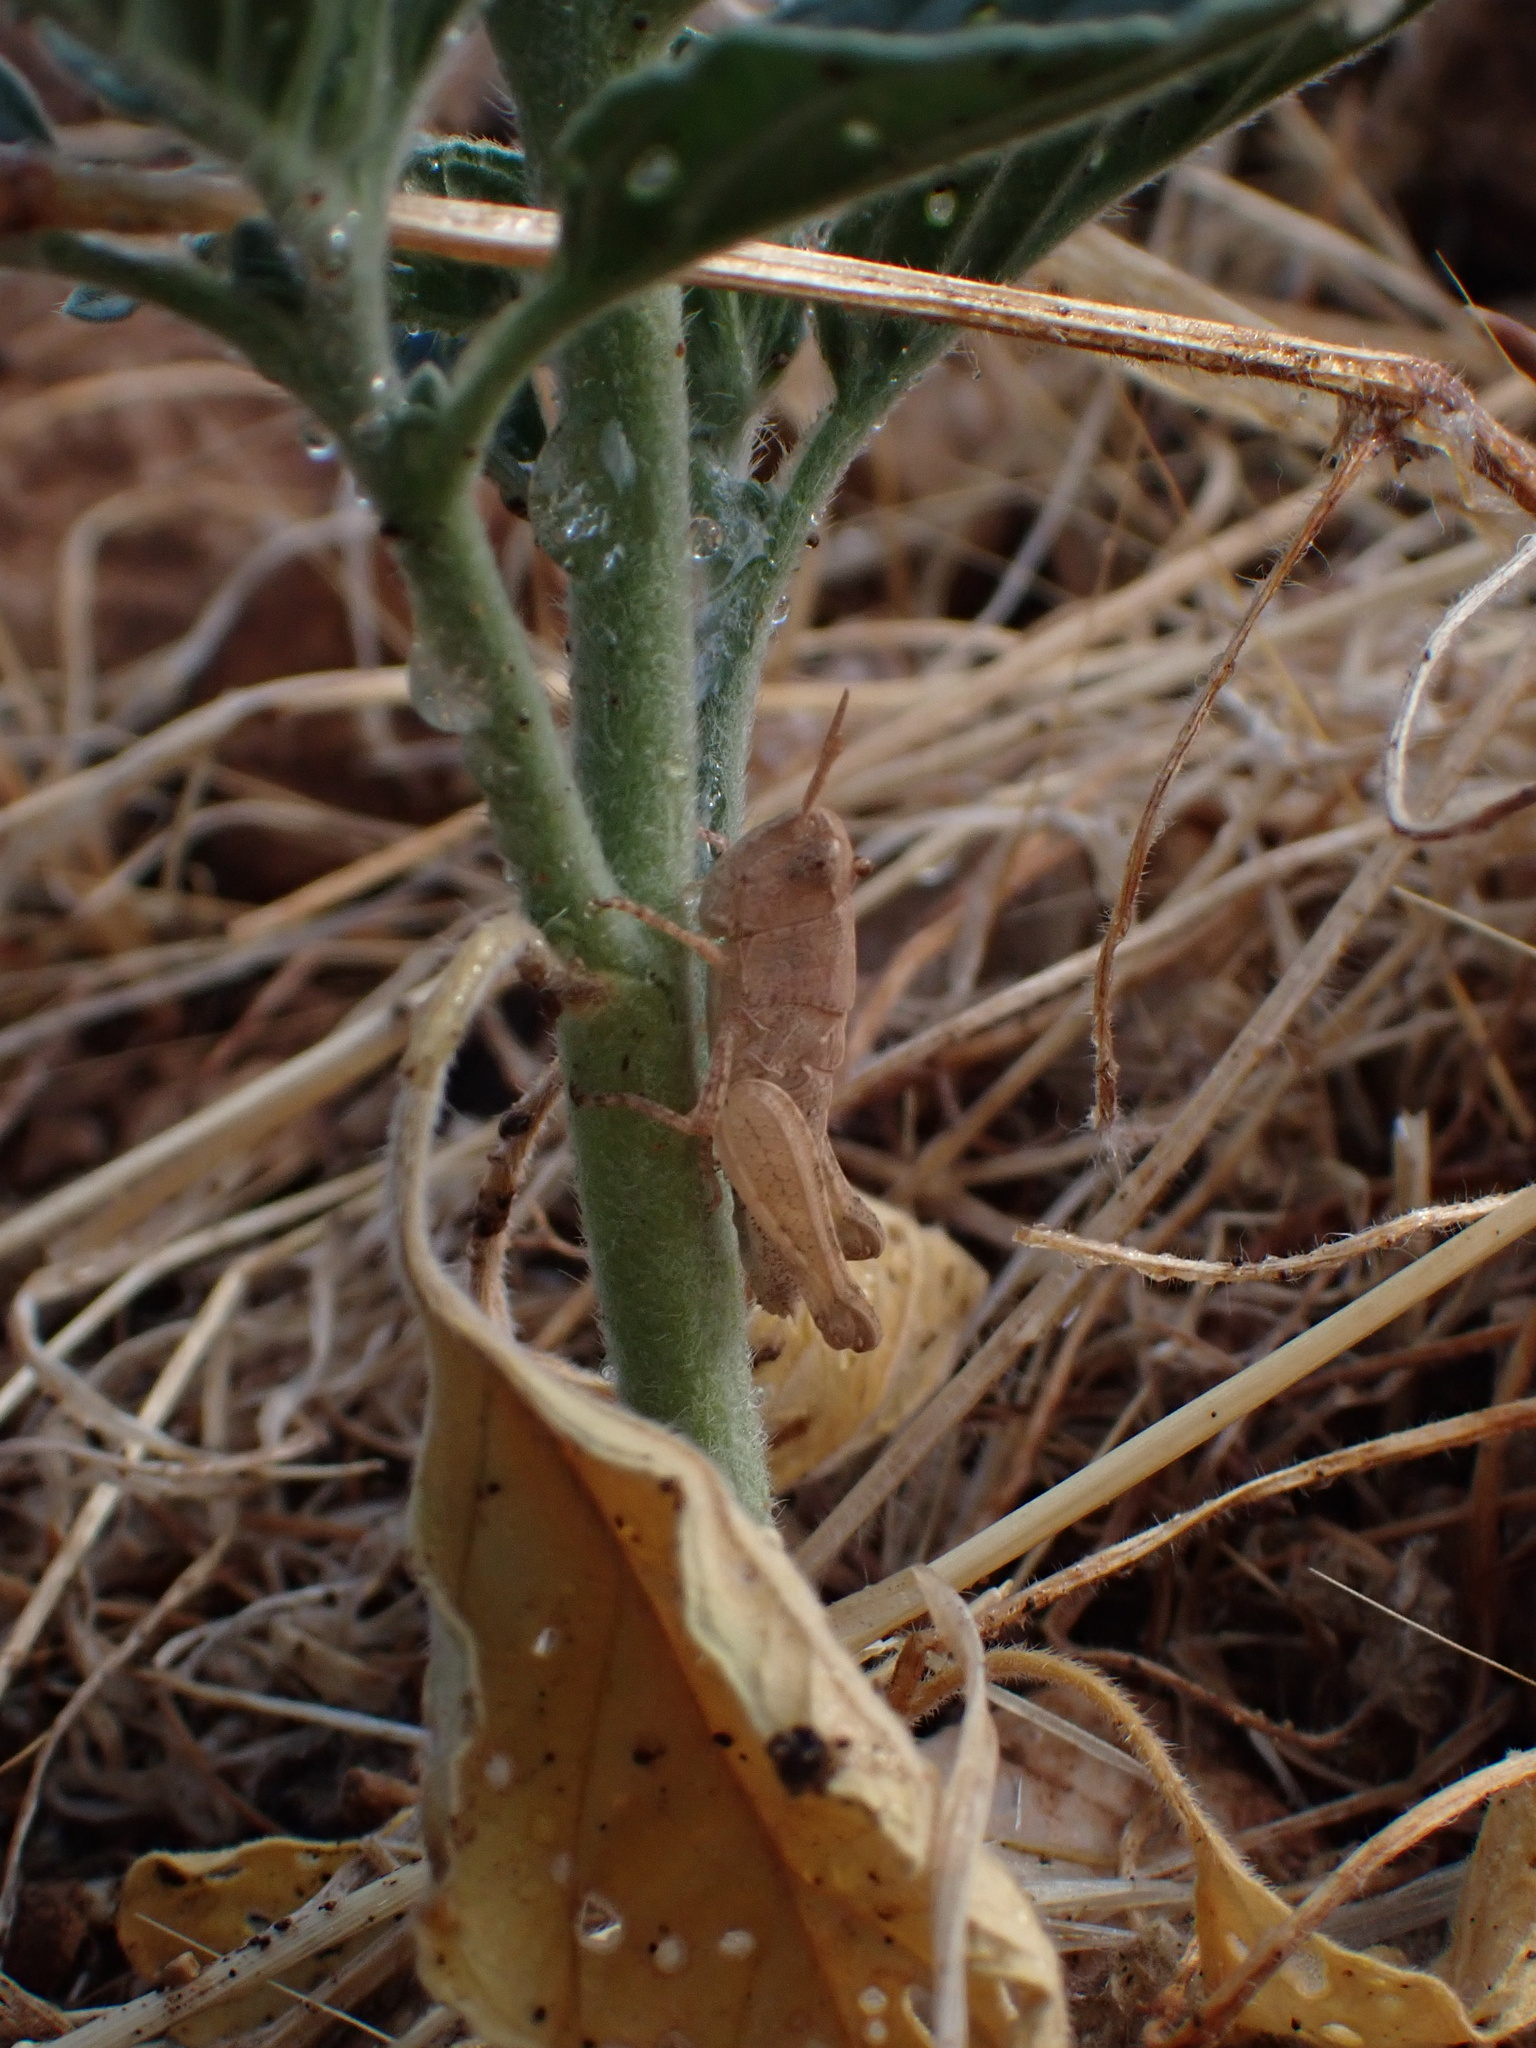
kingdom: Animalia
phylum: Arthropoda
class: Insecta
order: Orthoptera
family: Acrididae
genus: Pezotettix
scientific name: Pezotettix giornae
